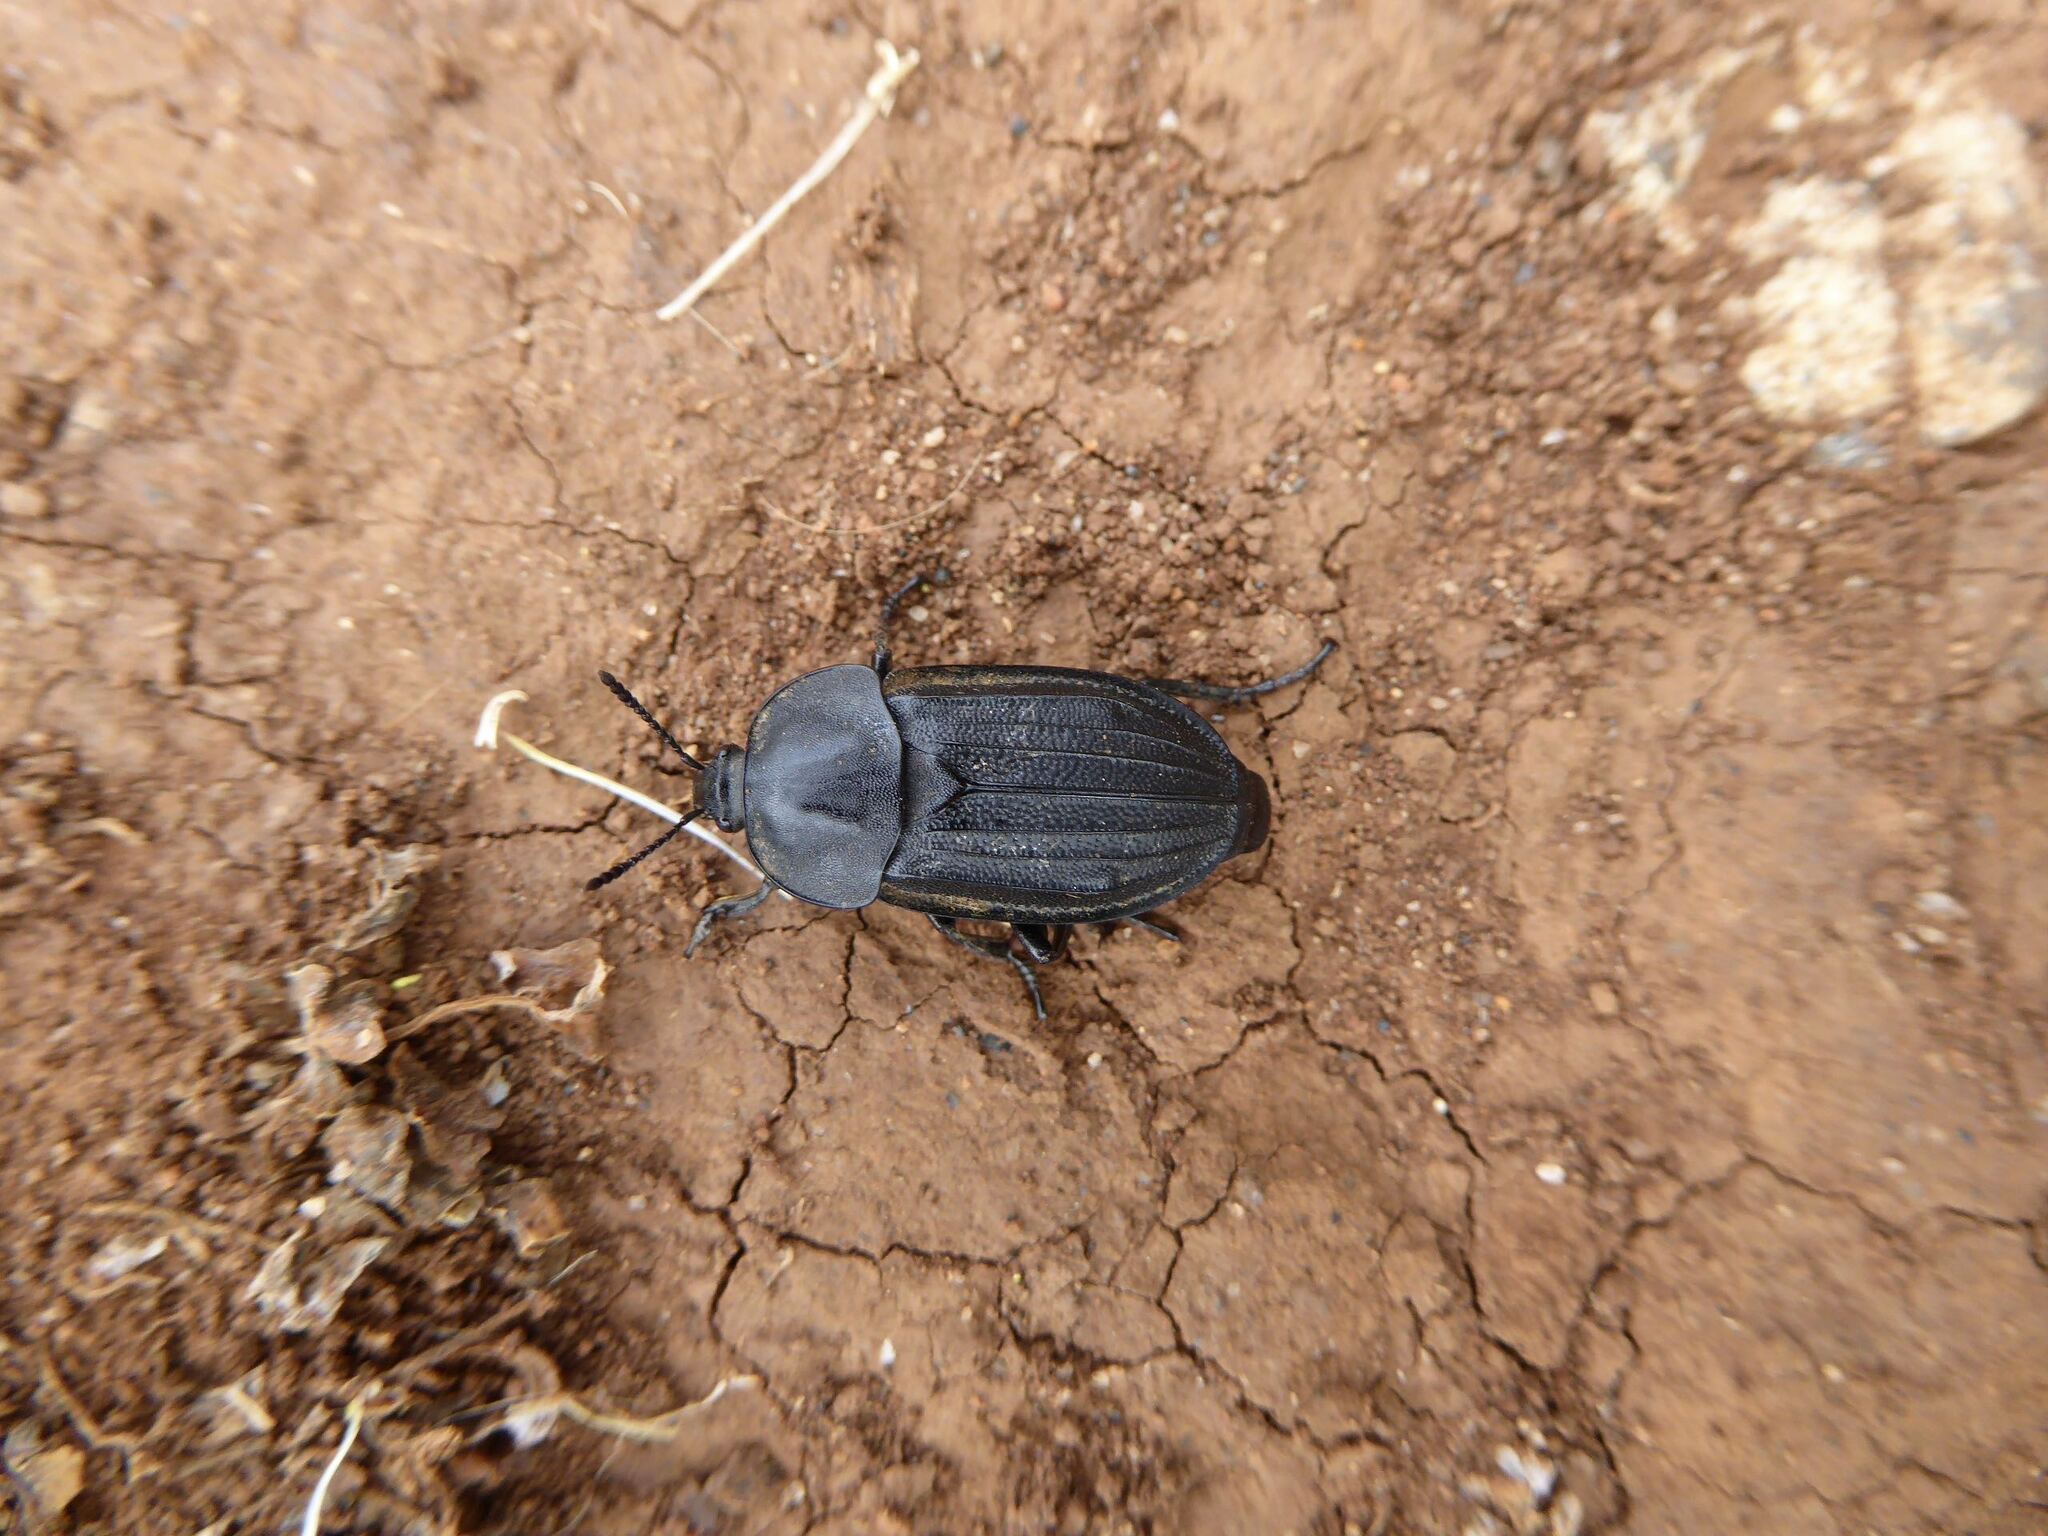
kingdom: Animalia
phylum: Arthropoda
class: Insecta
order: Coleoptera
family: Staphylinidae
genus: Silpha
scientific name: Silpha puncticollis
